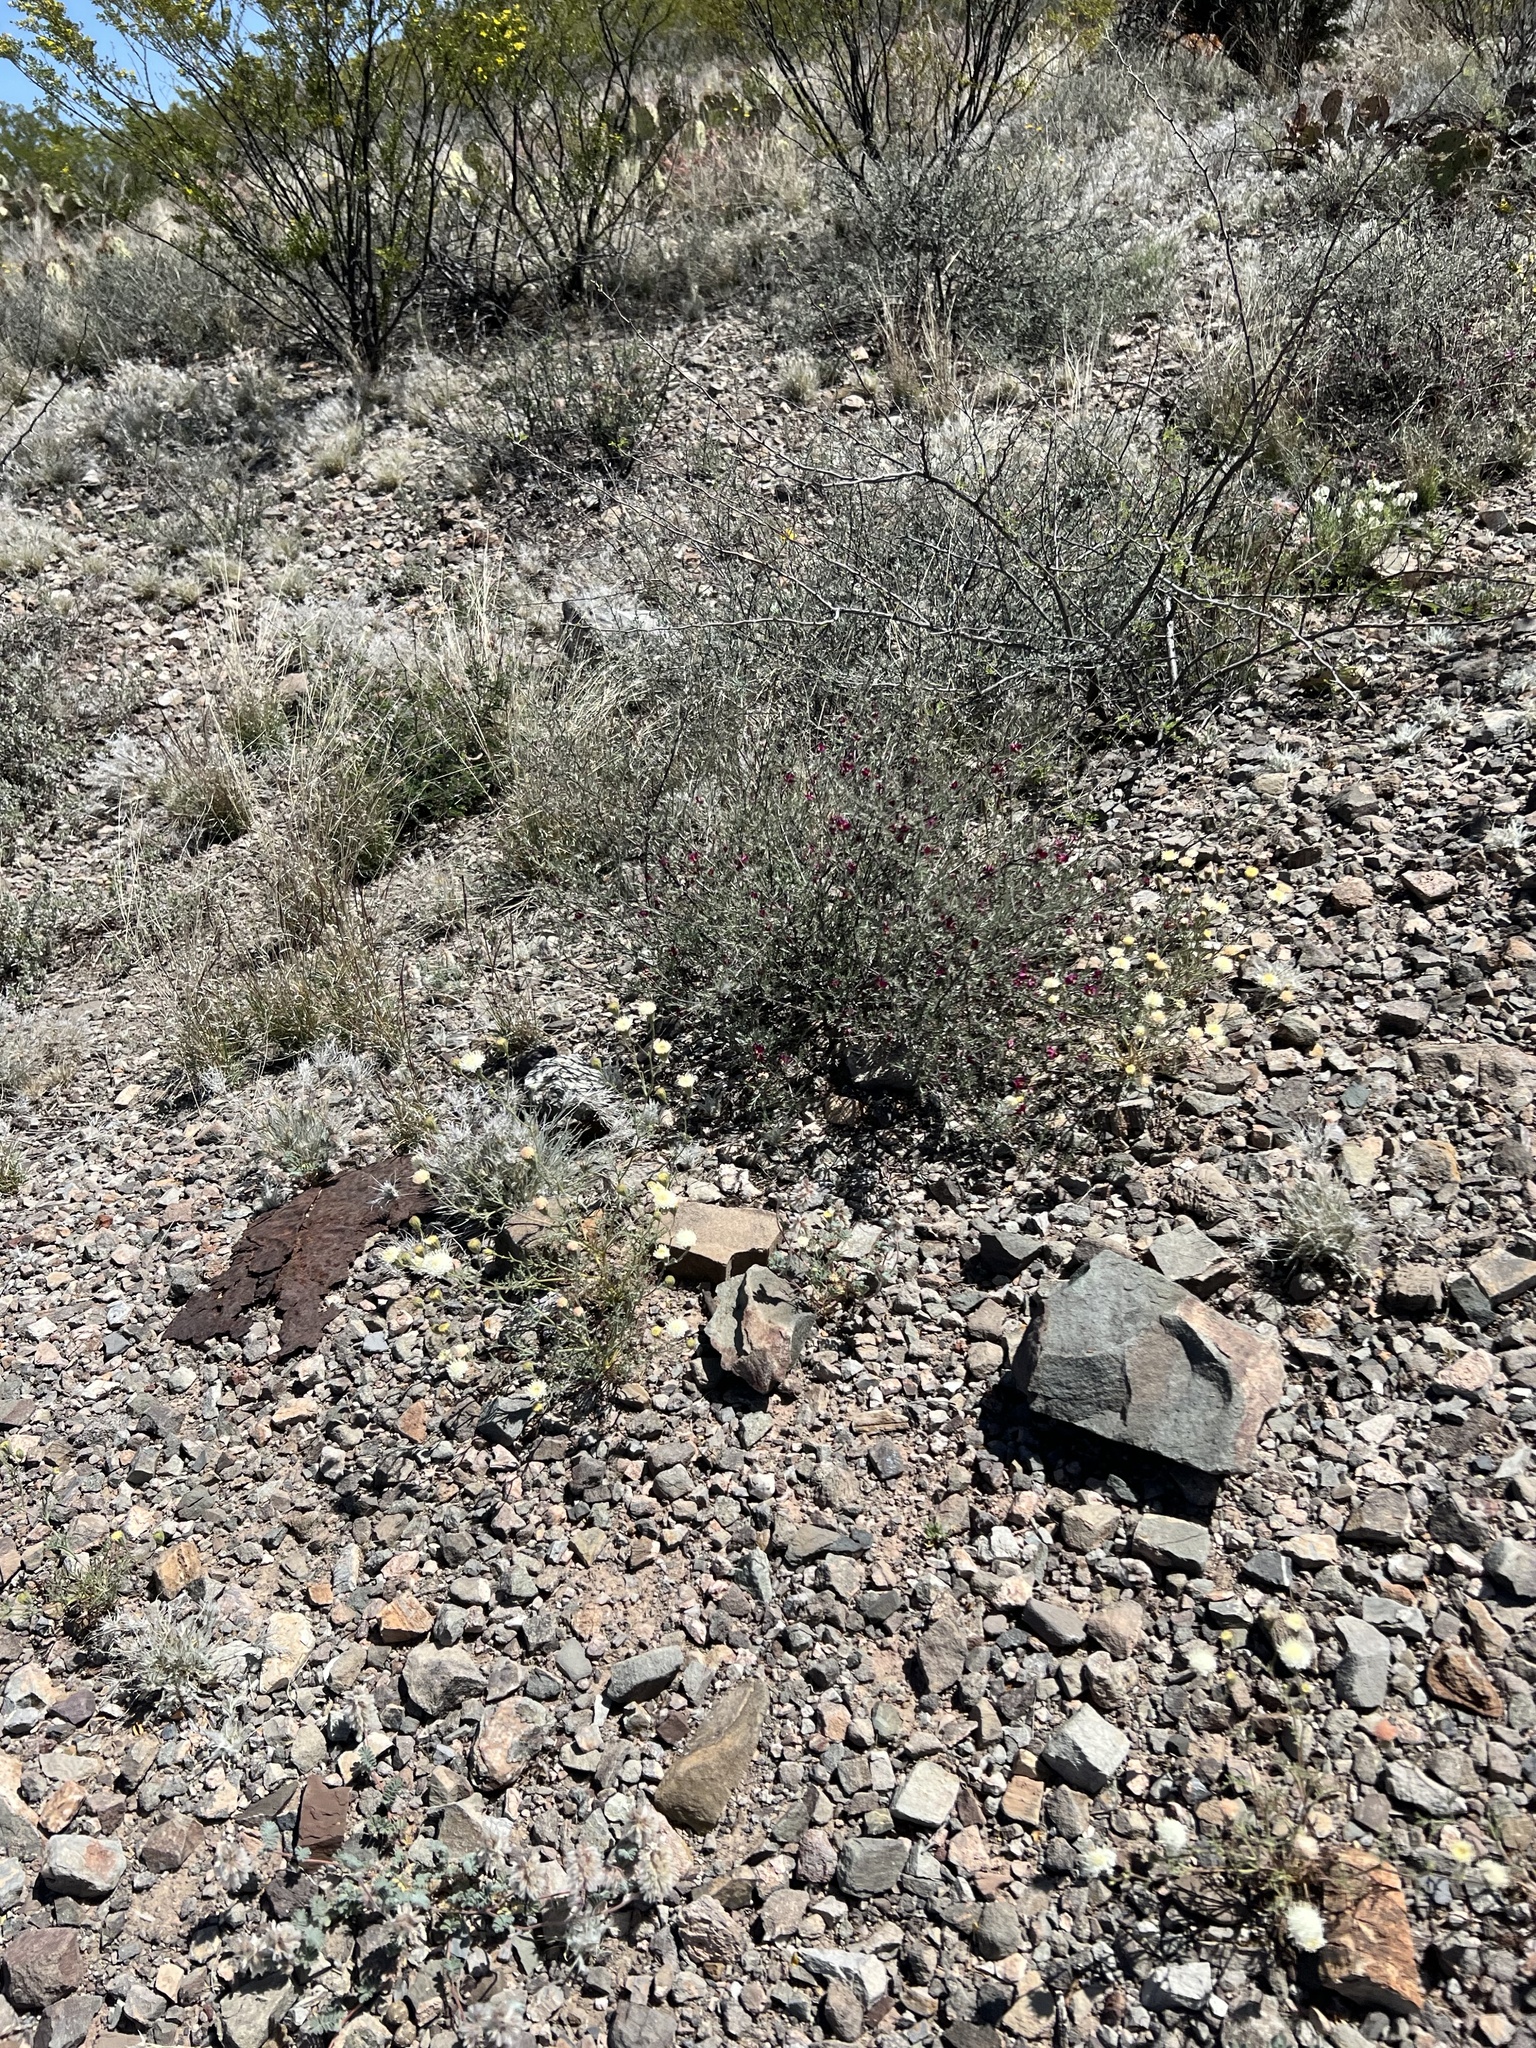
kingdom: Plantae
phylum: Tracheophyta
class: Magnoliopsida
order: Asterales
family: Asteraceae
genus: Chaenactis
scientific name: Chaenactis carphoclinia
